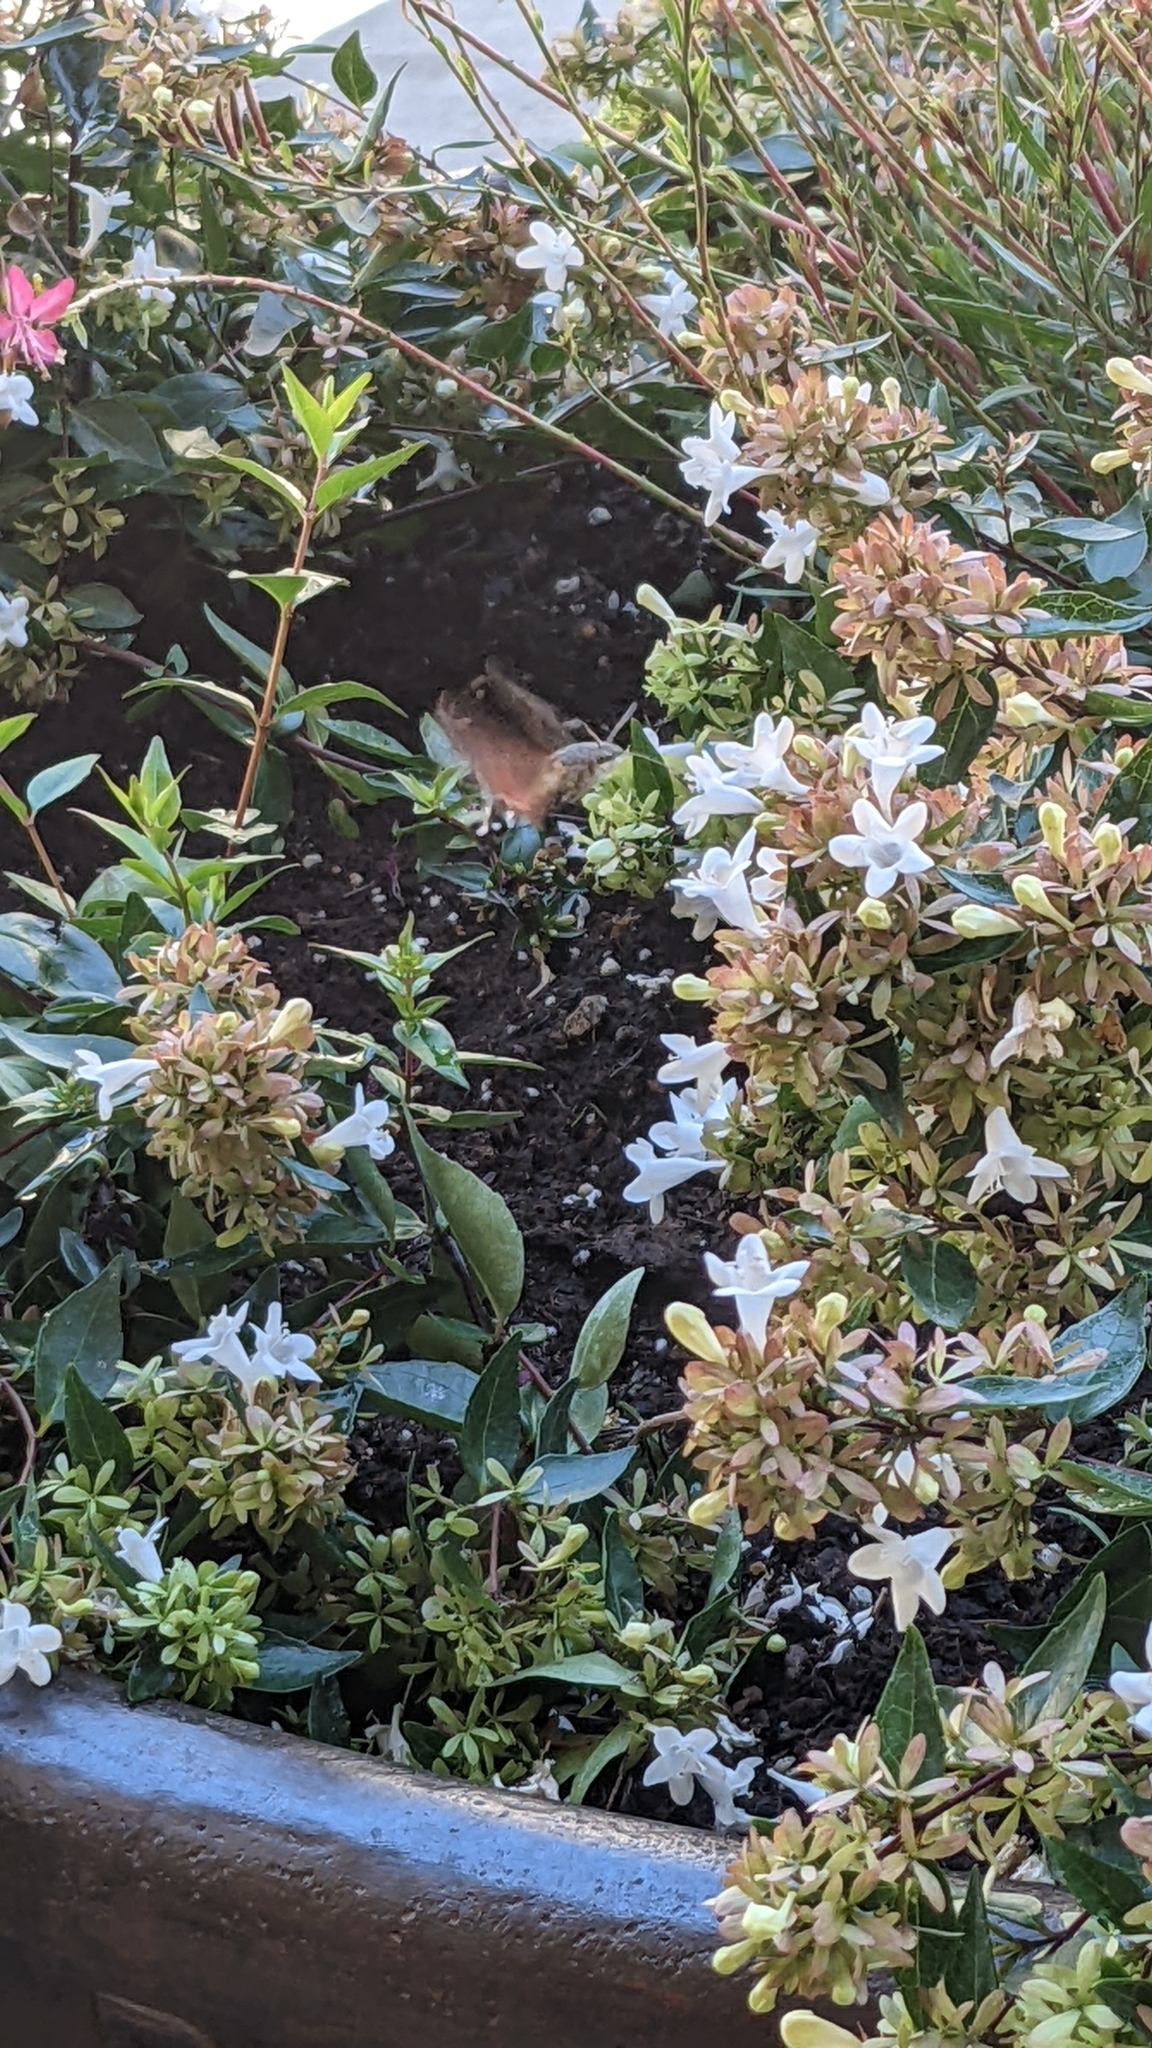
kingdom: Animalia
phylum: Arthropoda
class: Insecta
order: Lepidoptera
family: Sphingidae
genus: Macroglossum
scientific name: Macroglossum stellatarum
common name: Humming-bird hawk-moth
